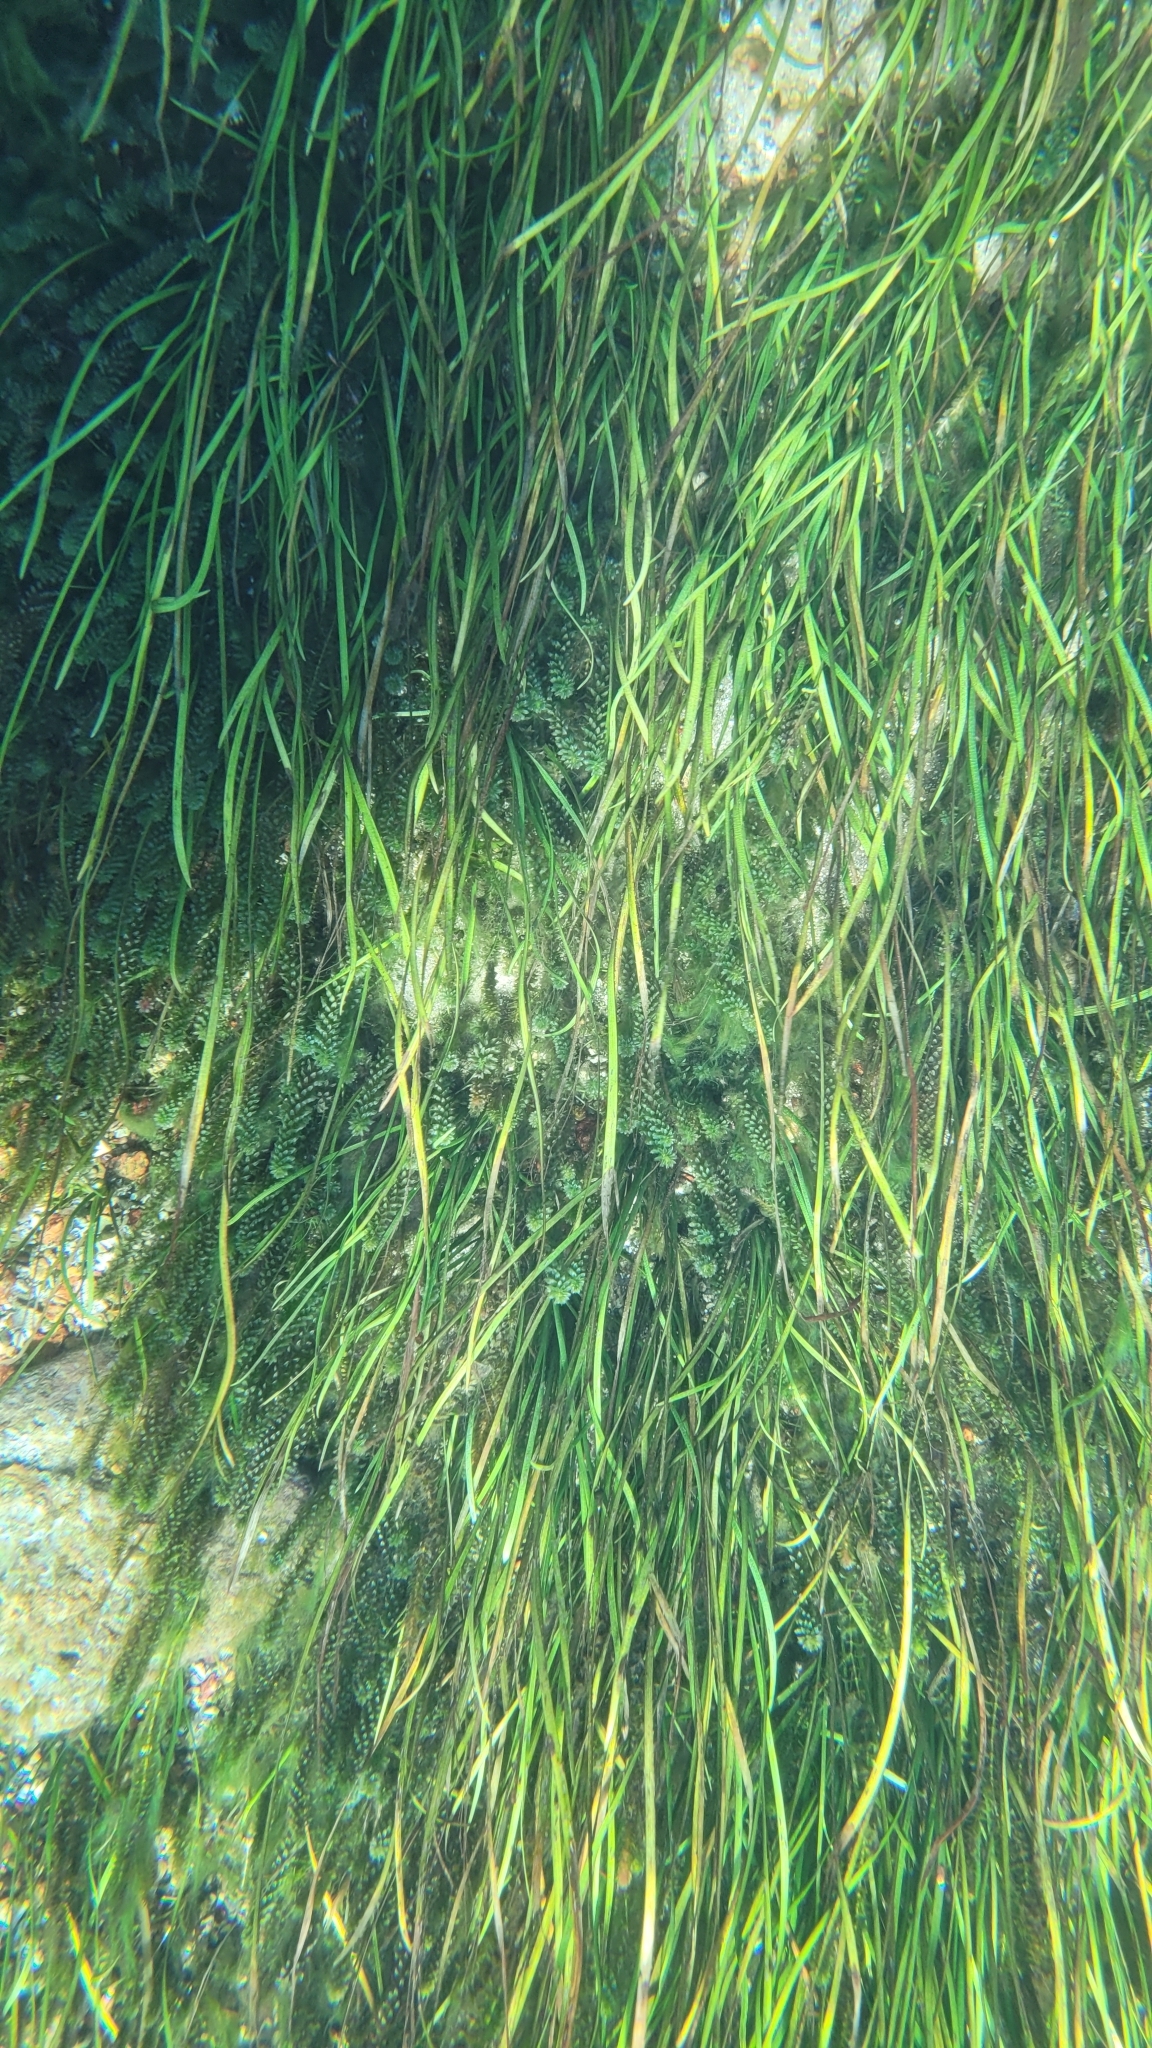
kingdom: Plantae
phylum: Tracheophyta
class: Liliopsida
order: Alismatales
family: Hydrocharitaceae
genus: Hydrilla
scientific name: Hydrilla verticillata
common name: Florida-elodea
